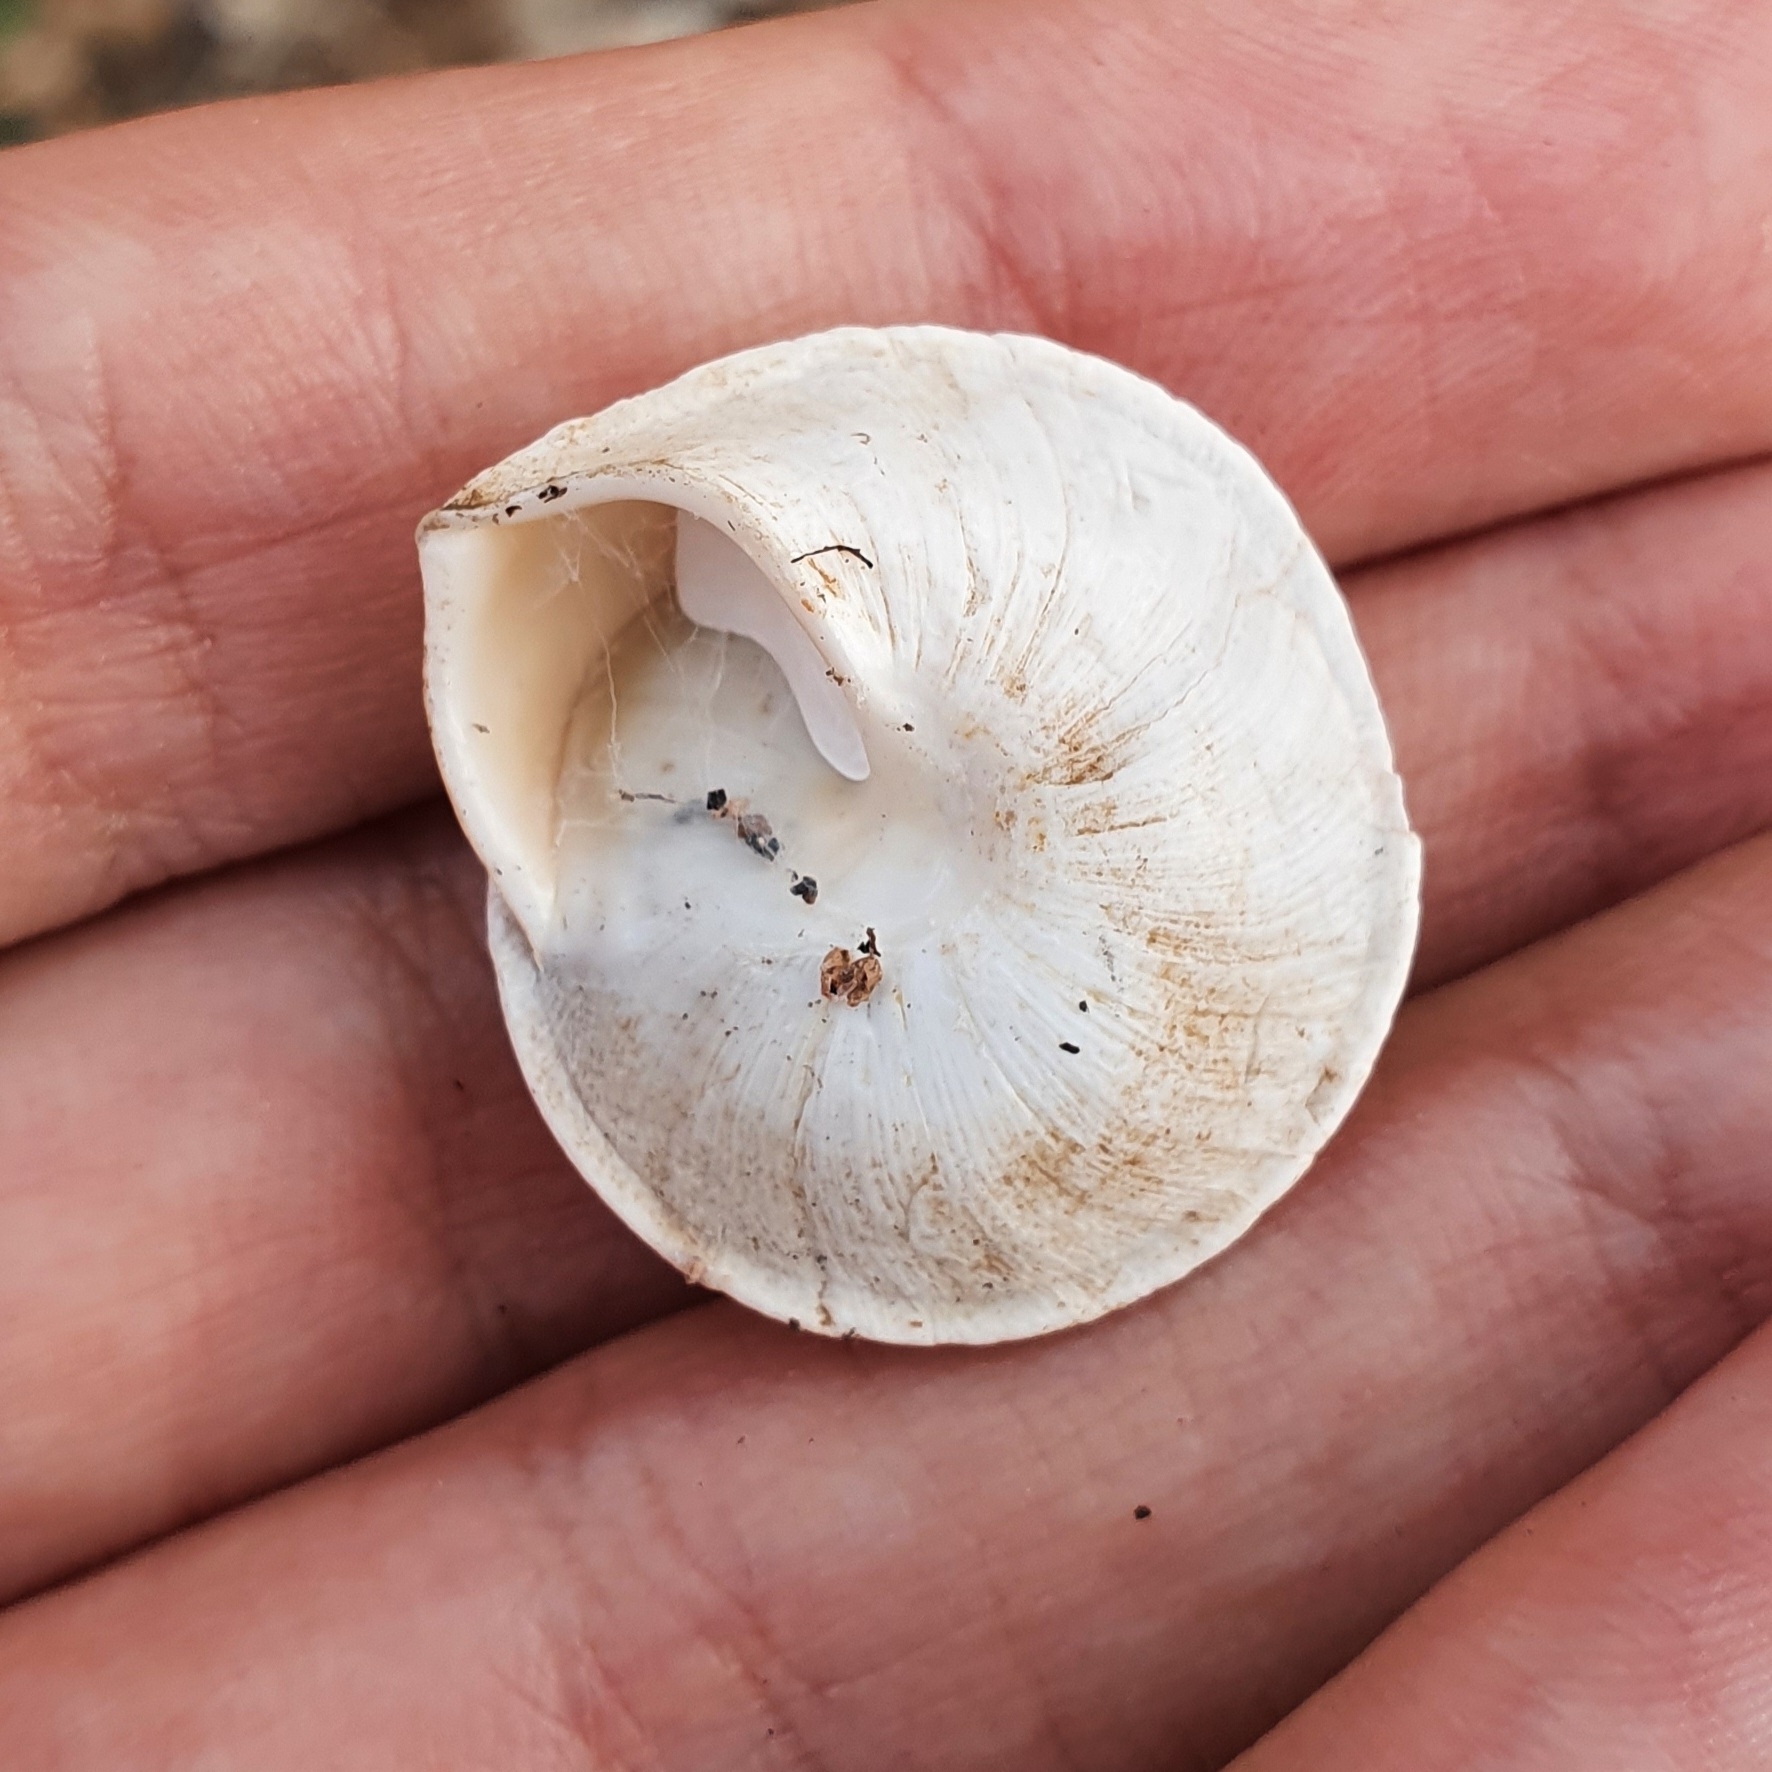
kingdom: Animalia
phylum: Mollusca
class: Gastropoda
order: Stylommatophora
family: Sphincterochilidae
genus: Sphincterochila
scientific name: Sphincterochila otthiana
